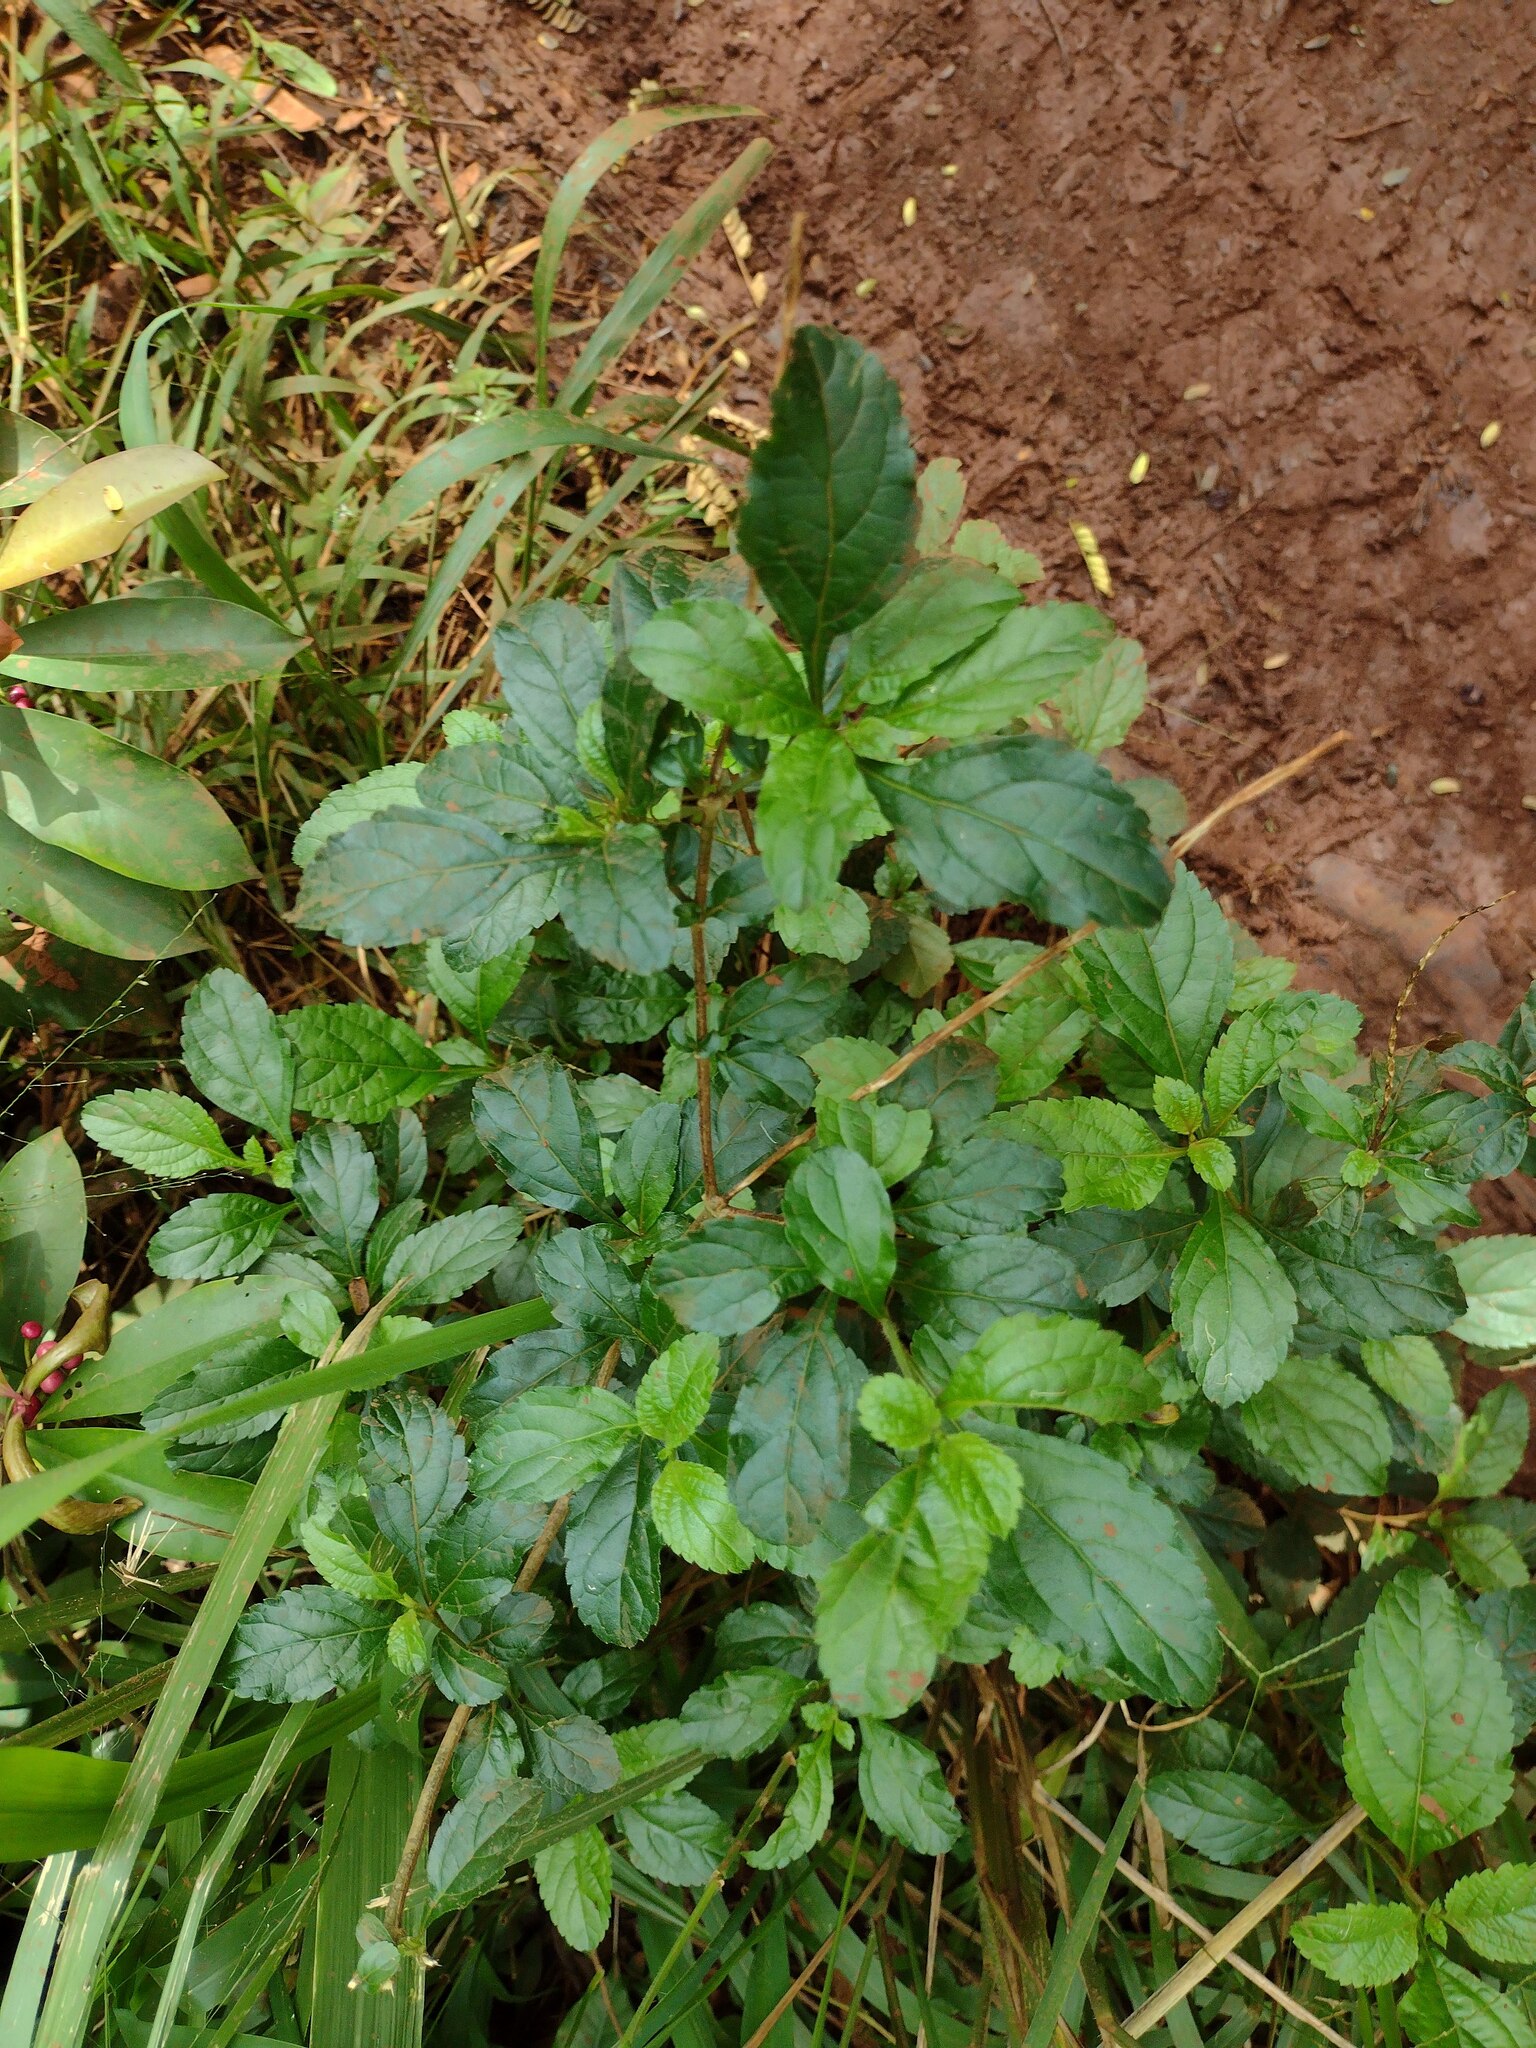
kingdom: Plantae
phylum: Tracheophyta
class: Magnoliopsida
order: Lamiales
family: Verbenaceae
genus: Stachytarpheta
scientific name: Stachytarpheta cayennensis
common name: Cayenne porterweed
